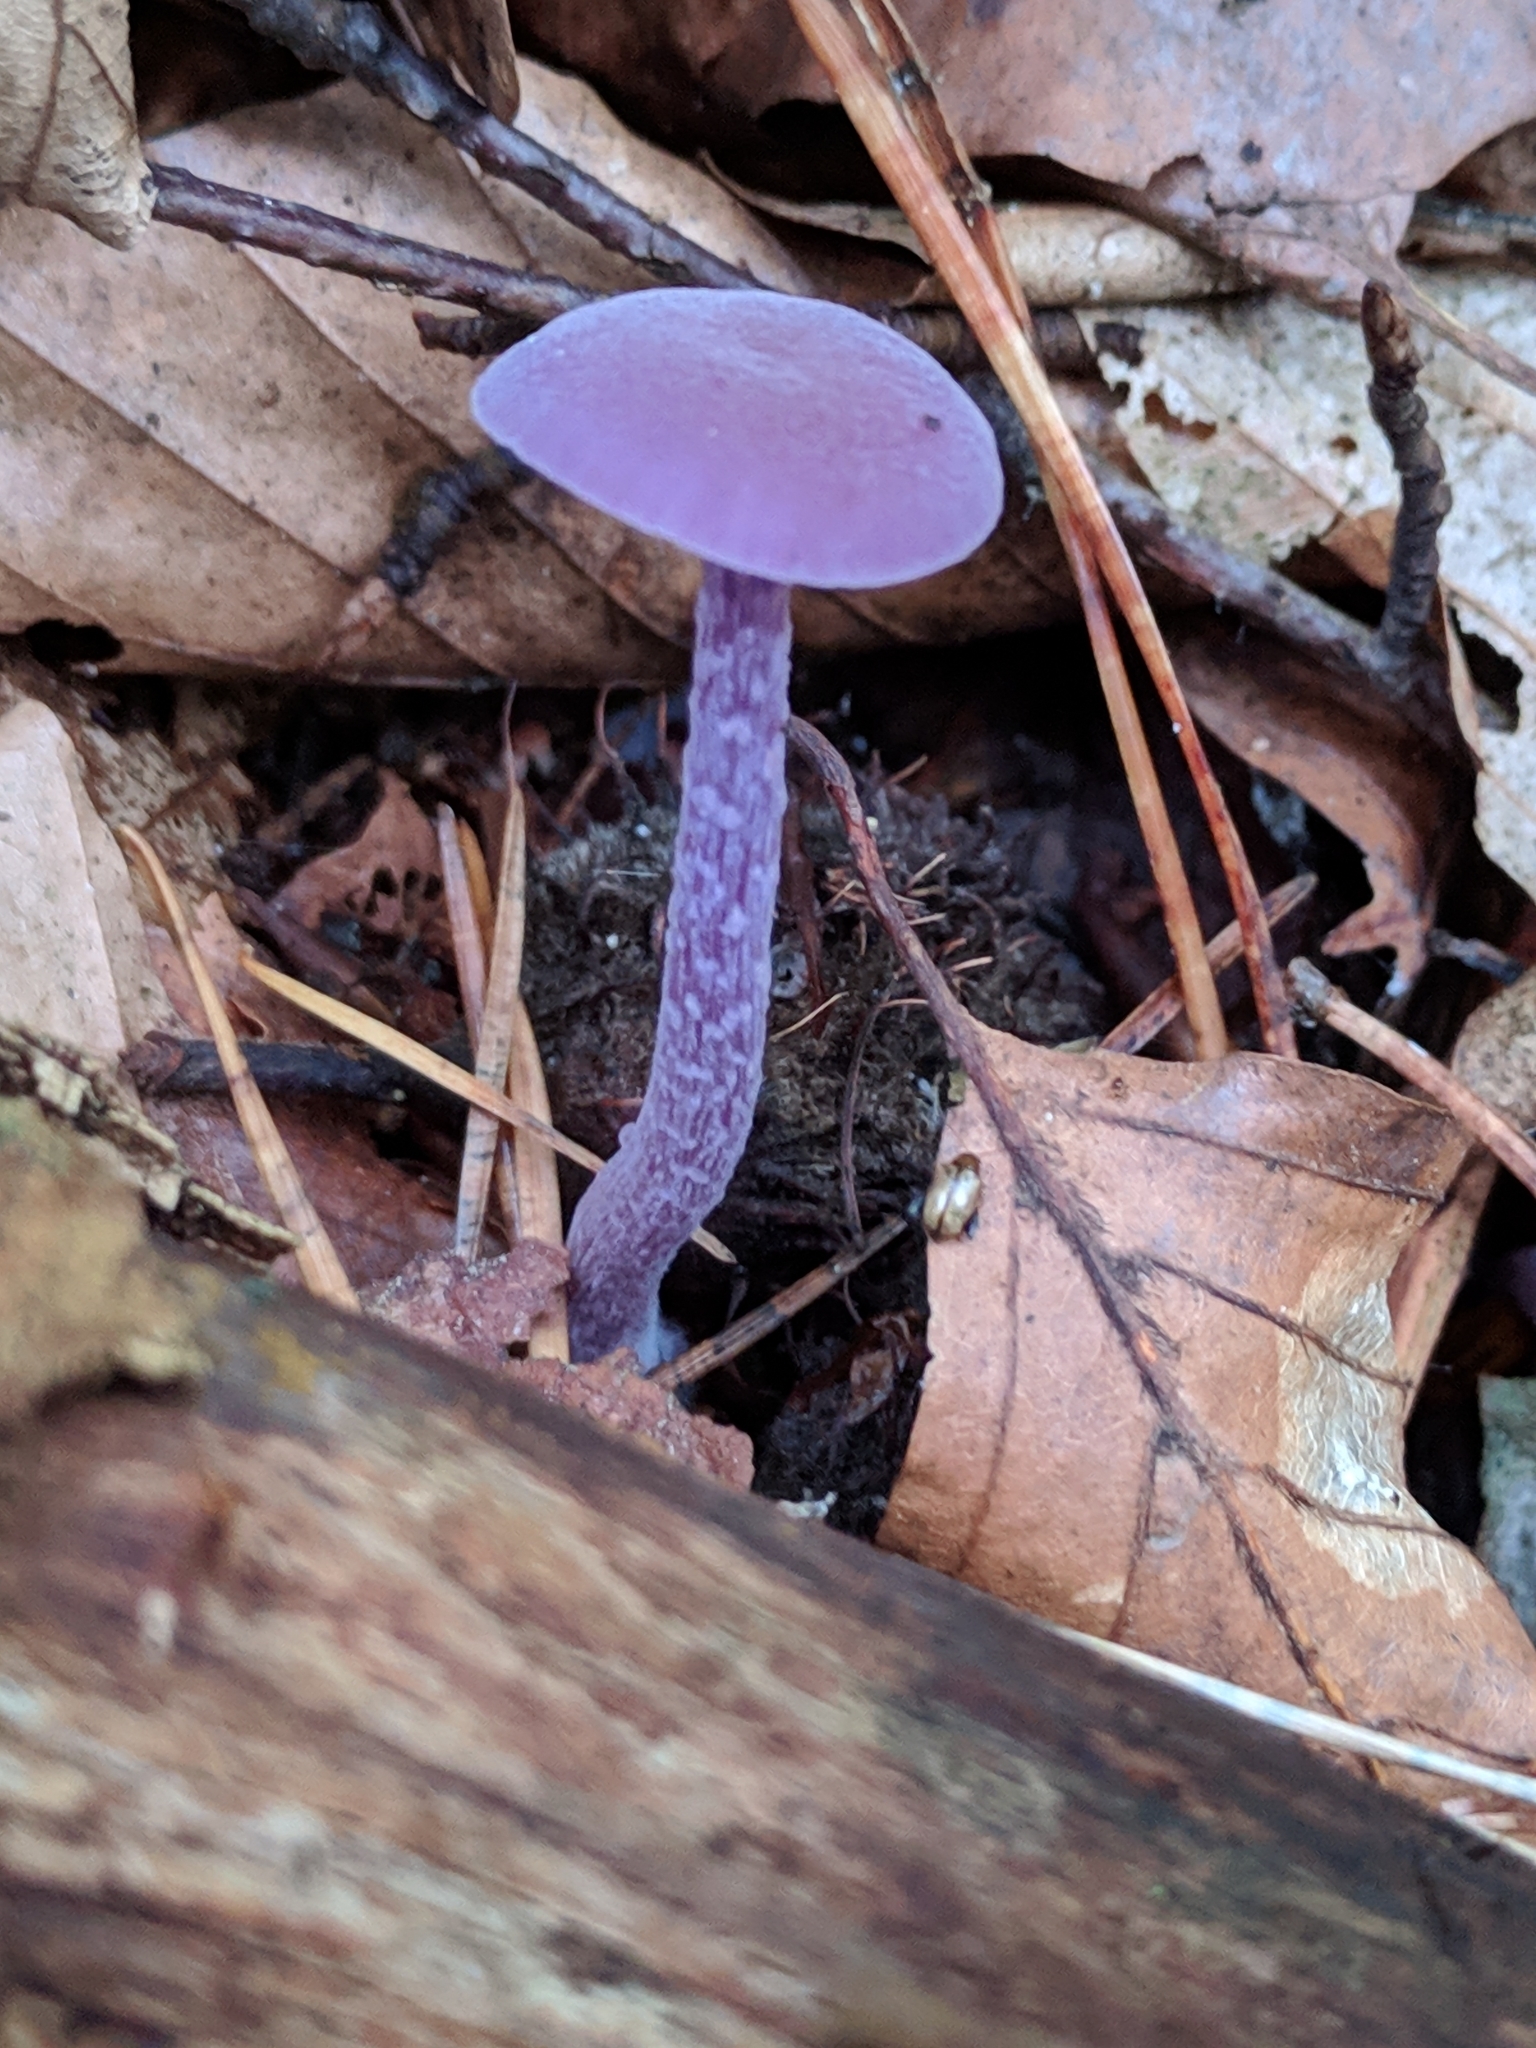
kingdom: Fungi
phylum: Basidiomycota
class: Agaricomycetes
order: Agaricales
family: Hydnangiaceae
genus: Laccaria
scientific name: Laccaria amethystina
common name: Amethyst deceiver
